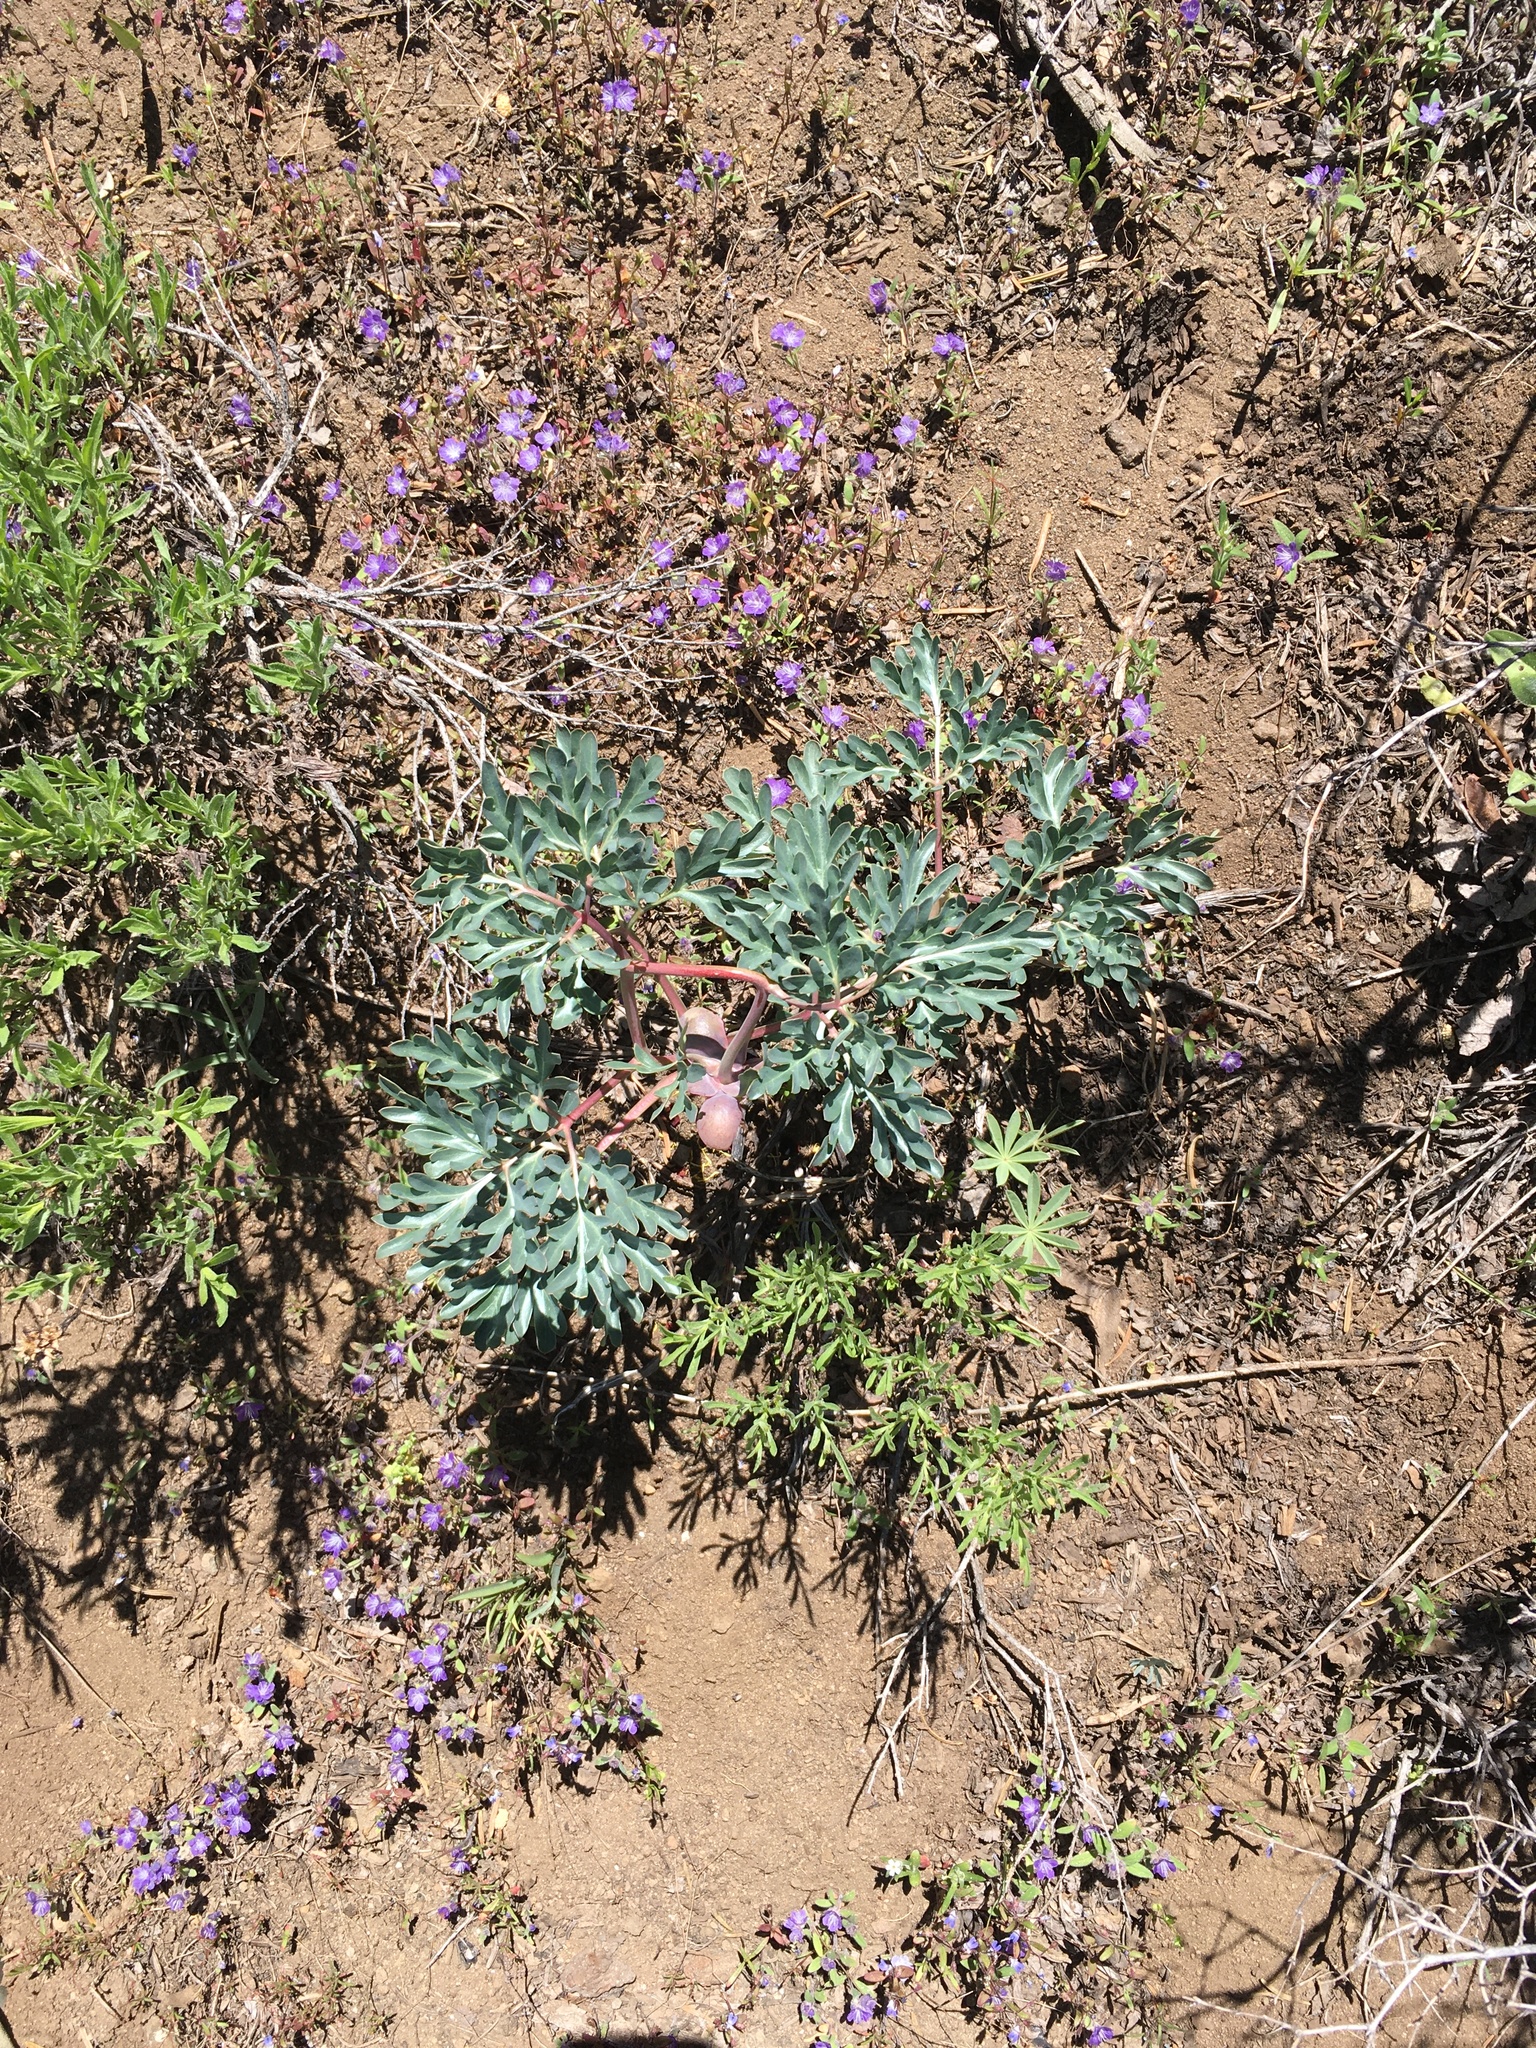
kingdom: Plantae
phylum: Tracheophyta
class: Magnoliopsida
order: Saxifragales
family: Paeoniaceae
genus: Paeonia
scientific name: Paeonia brownii
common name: Brown's peony
